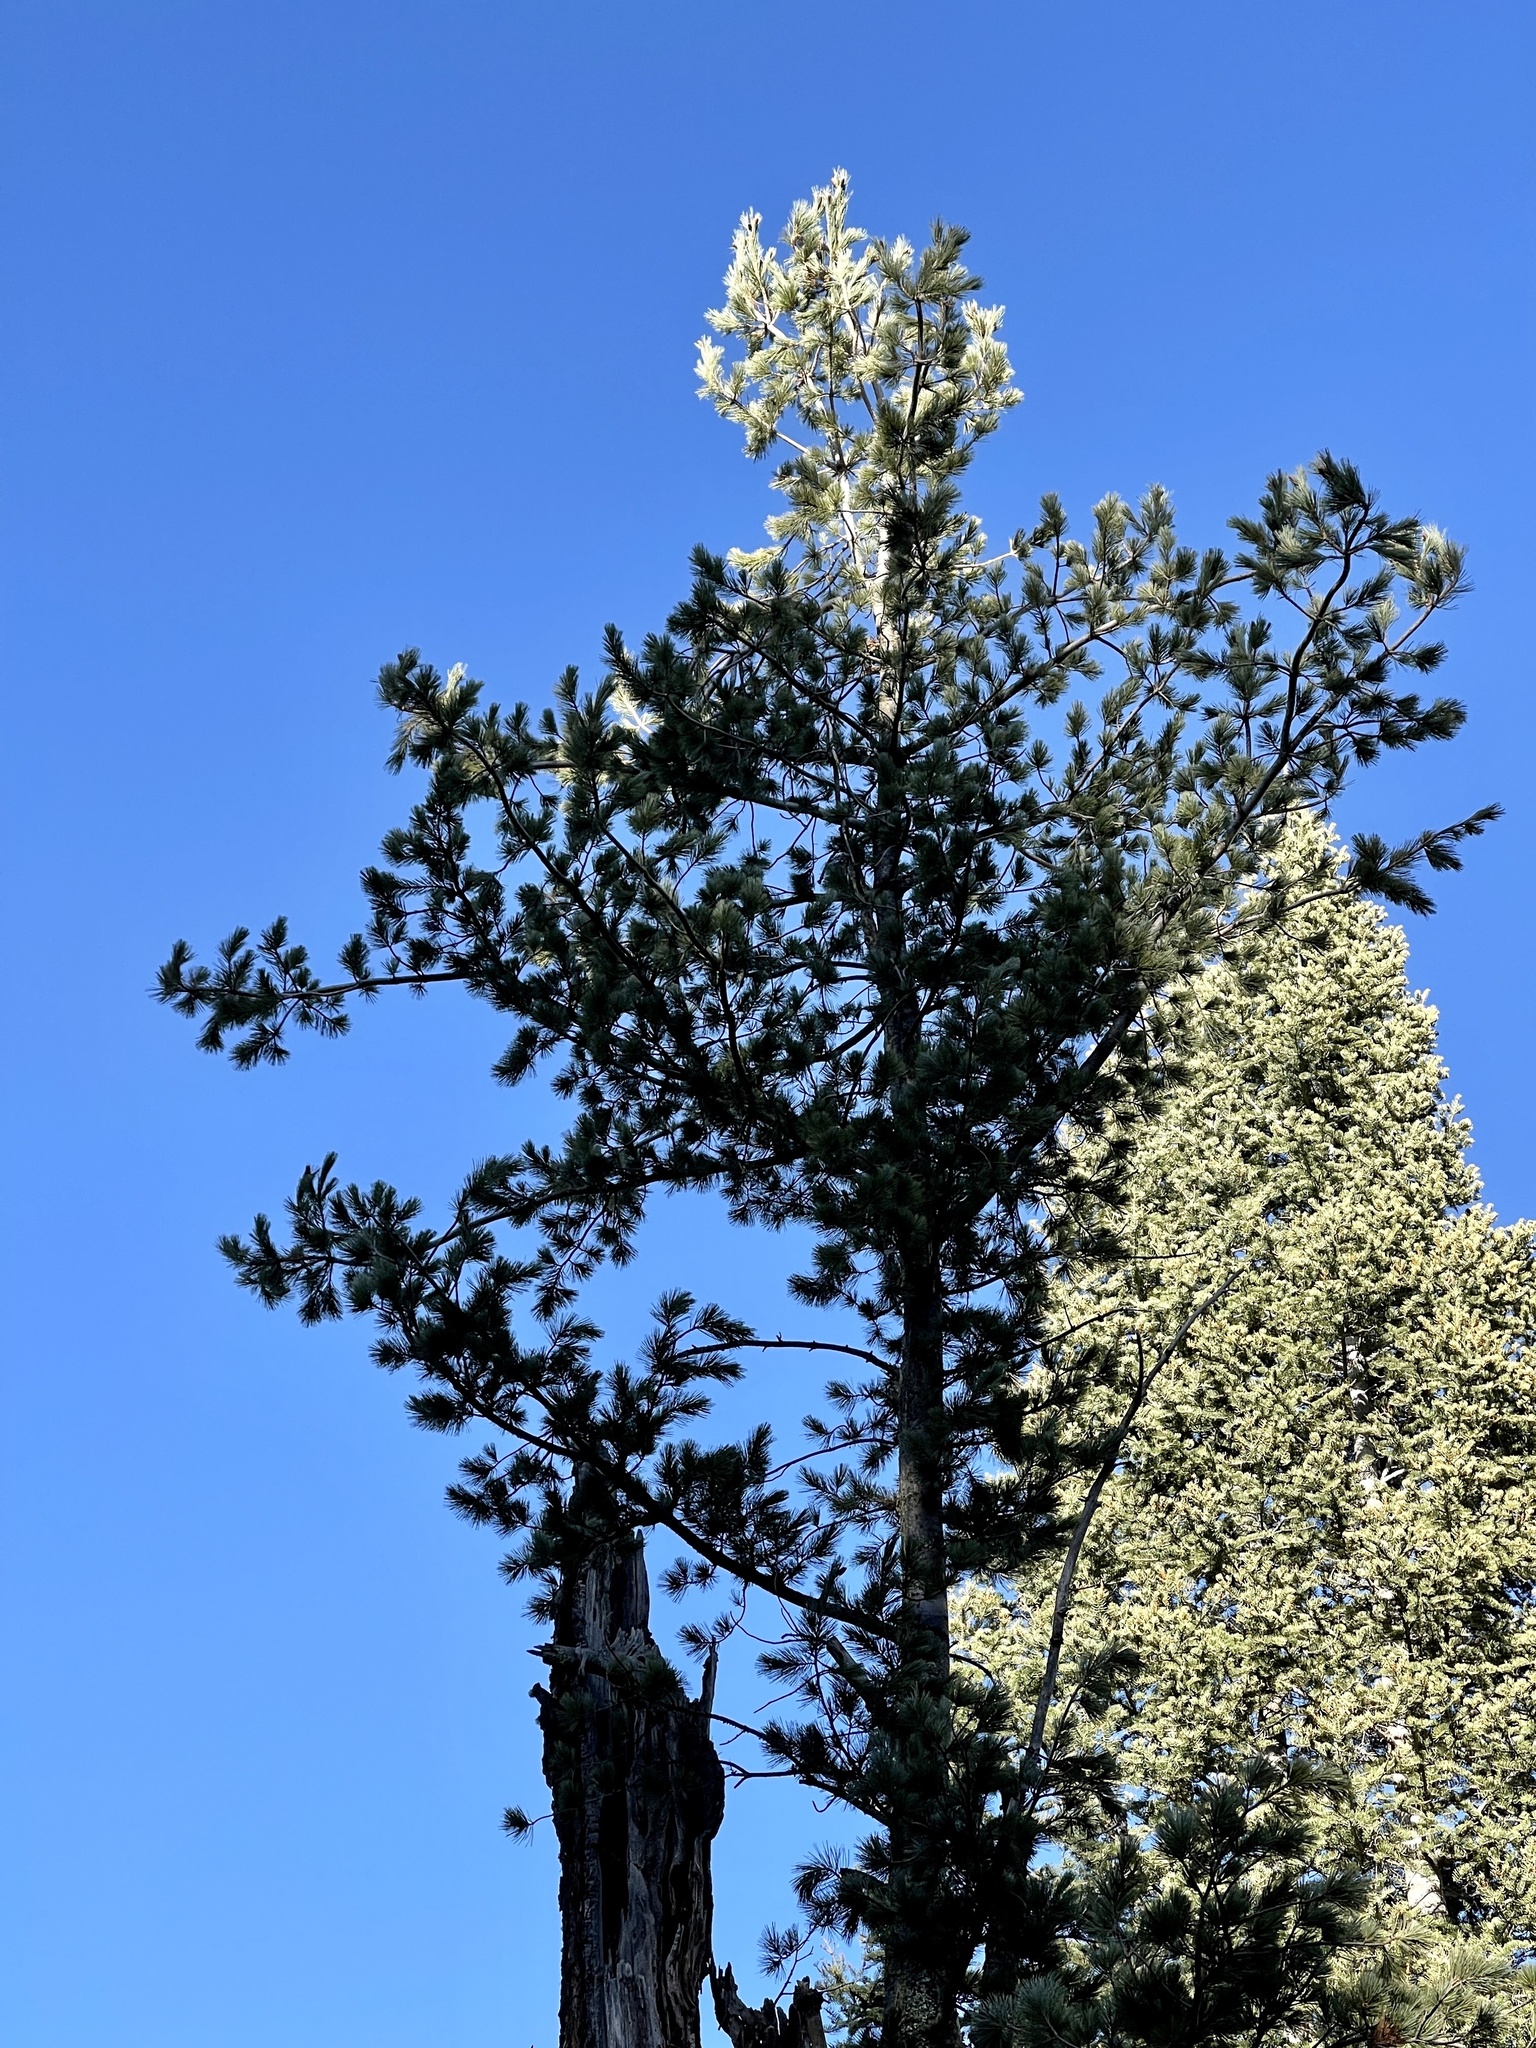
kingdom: Plantae
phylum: Tracheophyta
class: Pinopsida
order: Pinales
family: Pinaceae
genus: Pinus
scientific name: Pinus strobiformis
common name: Southwestern white pine
